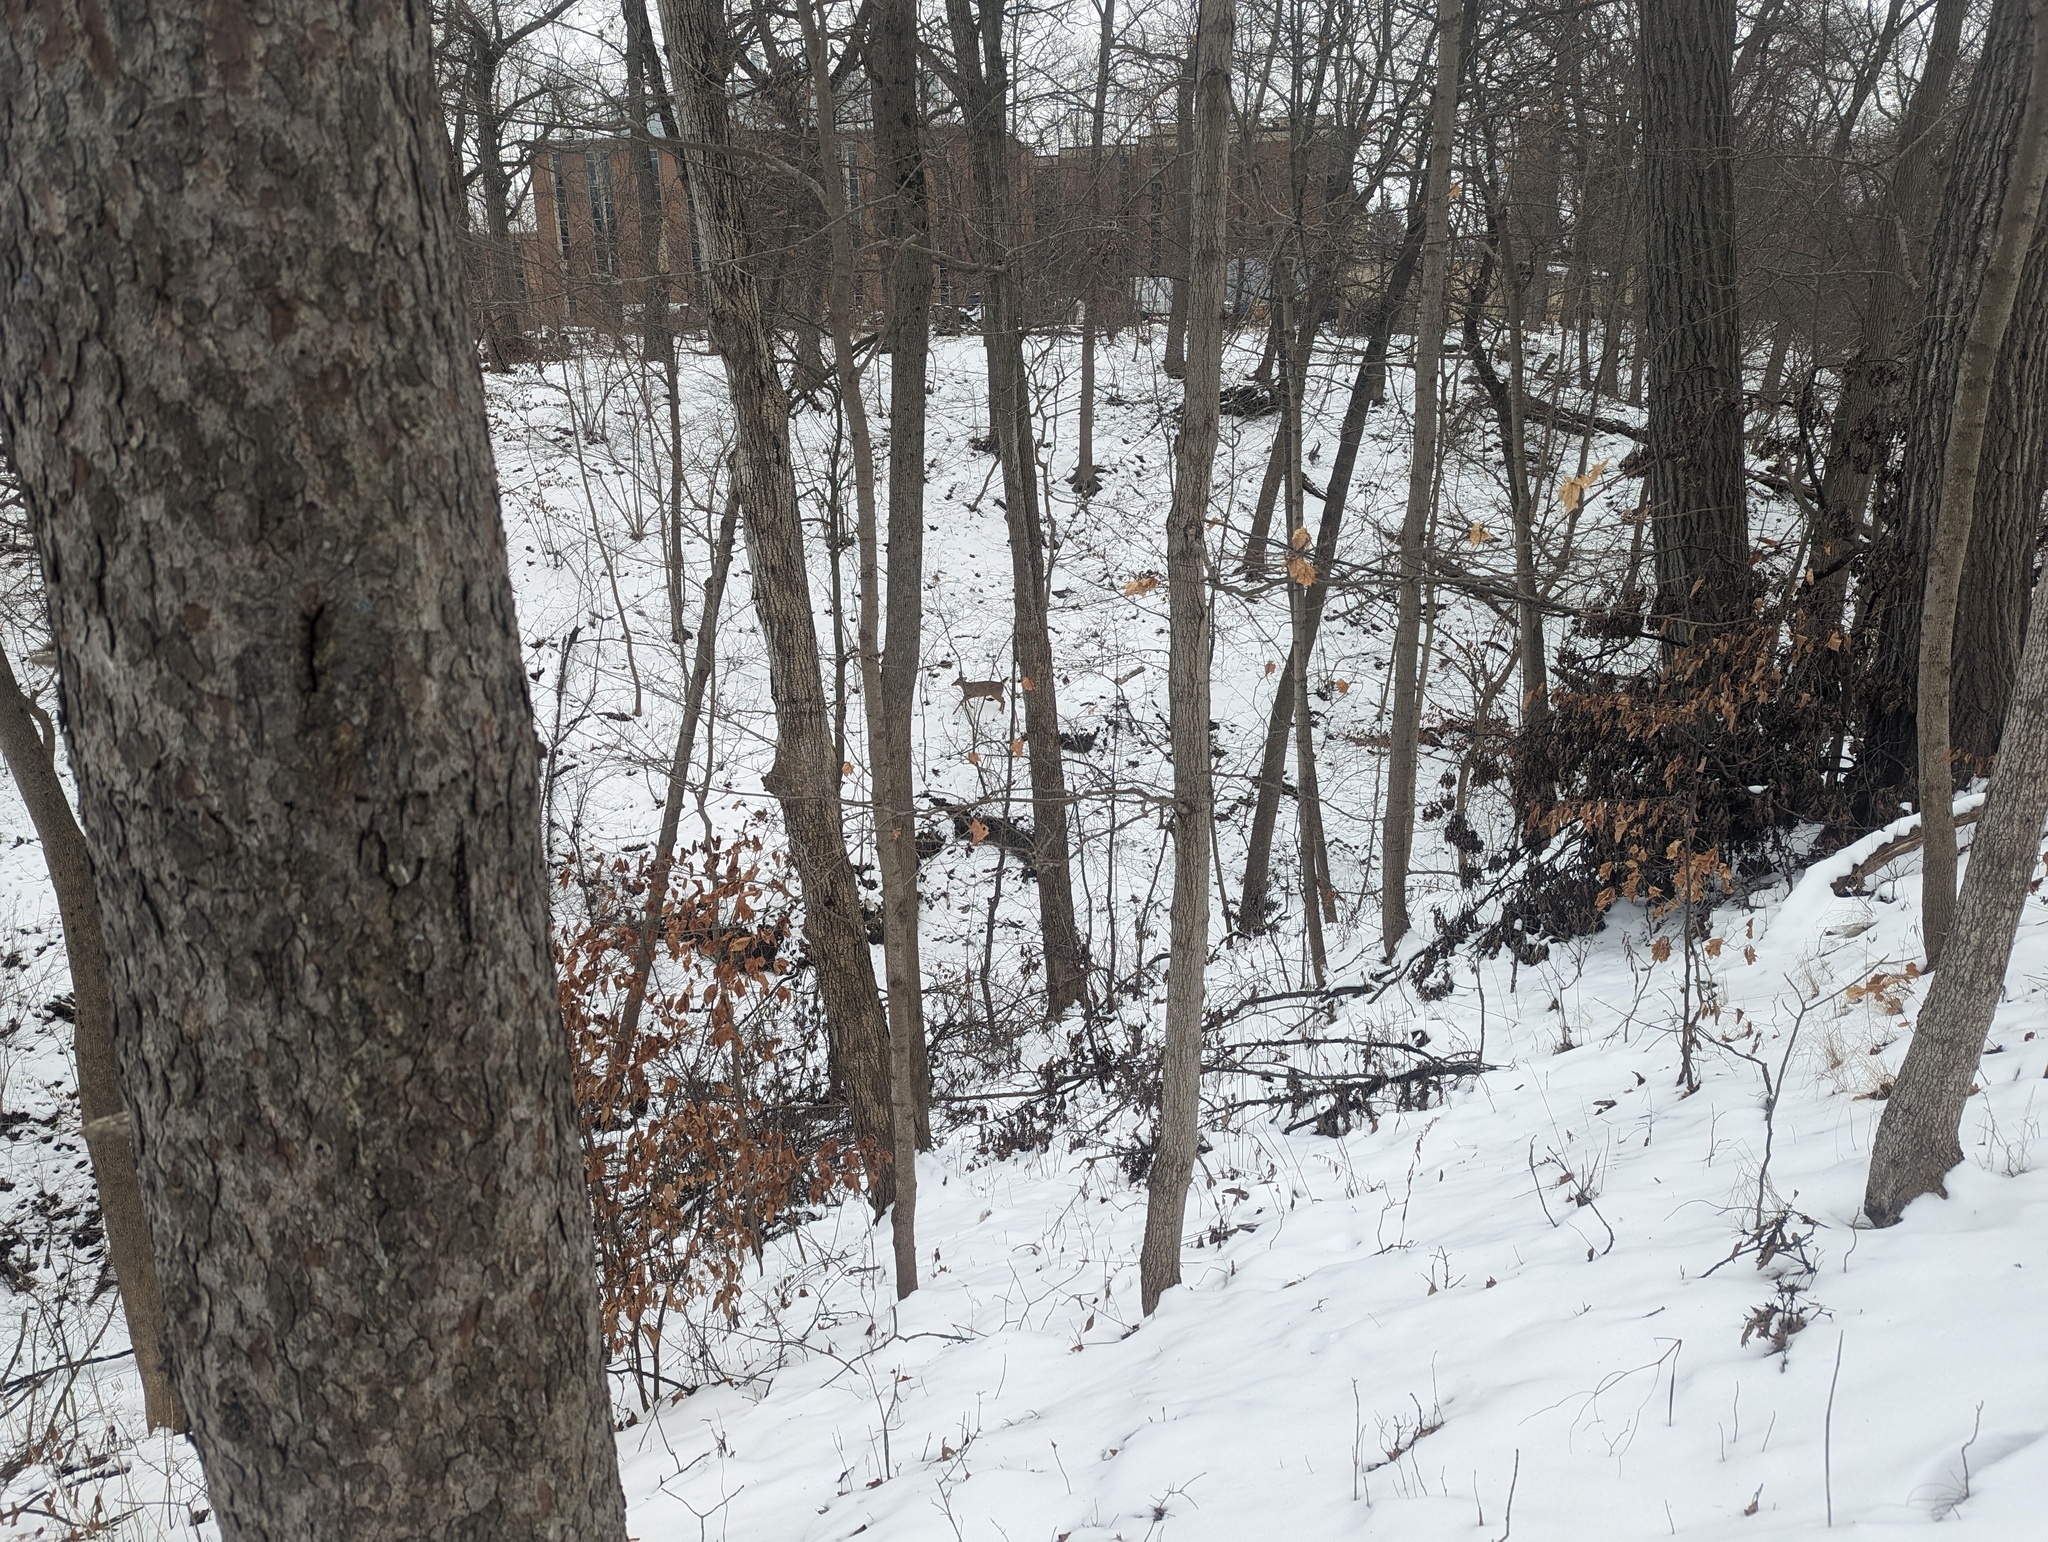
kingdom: Animalia
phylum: Chordata
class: Mammalia
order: Artiodactyla
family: Cervidae
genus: Odocoileus
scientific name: Odocoileus virginianus
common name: White-tailed deer
